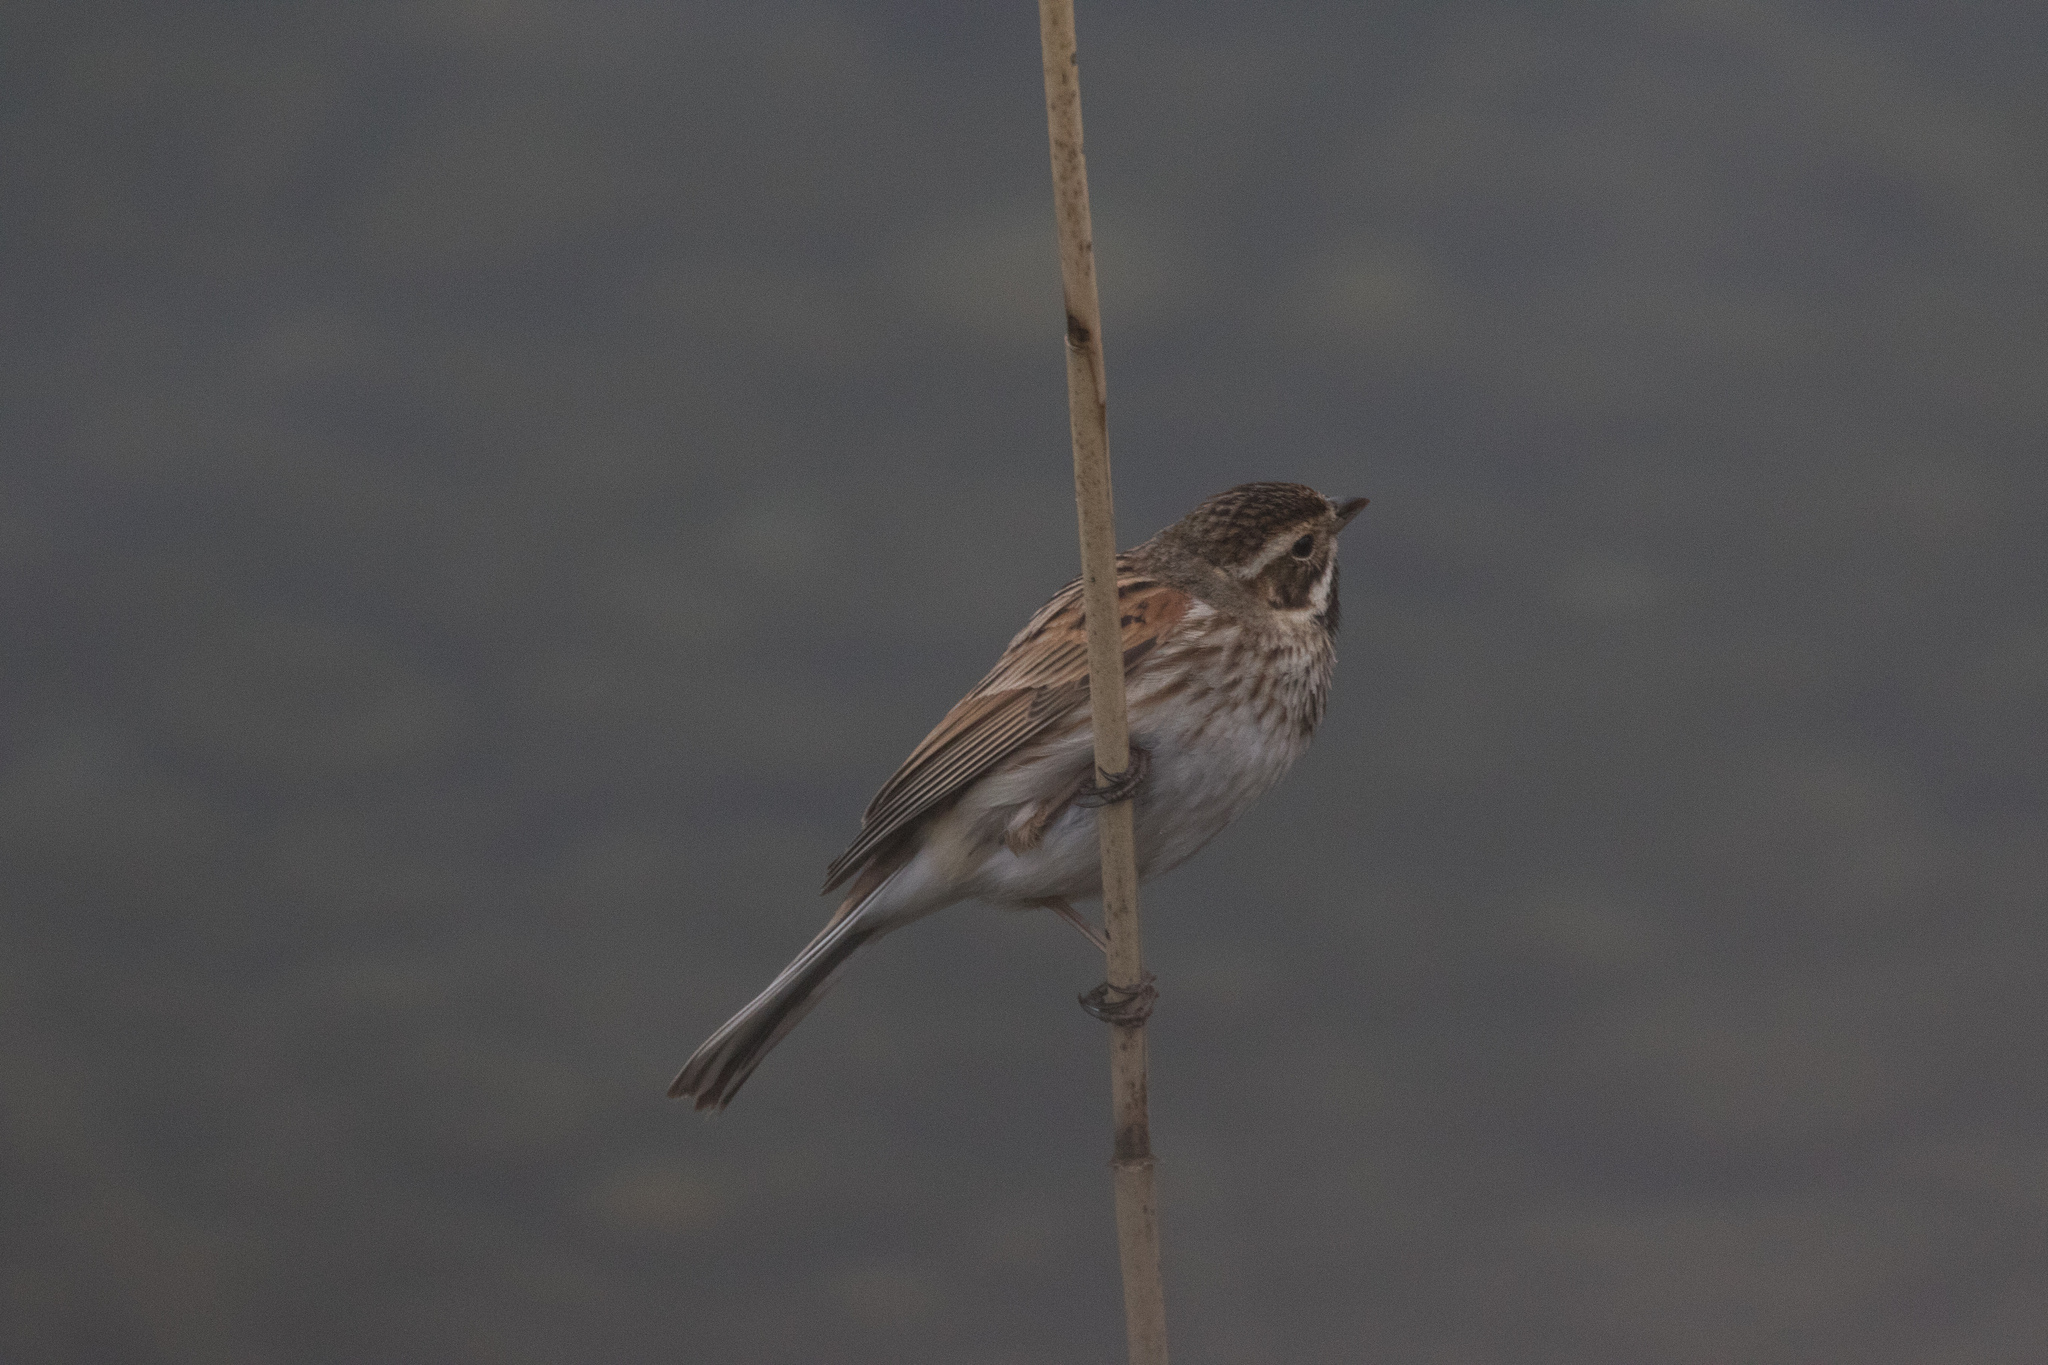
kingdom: Animalia
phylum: Chordata
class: Aves
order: Passeriformes
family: Emberizidae
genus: Emberiza
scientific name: Emberiza schoeniclus
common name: Reed bunting
